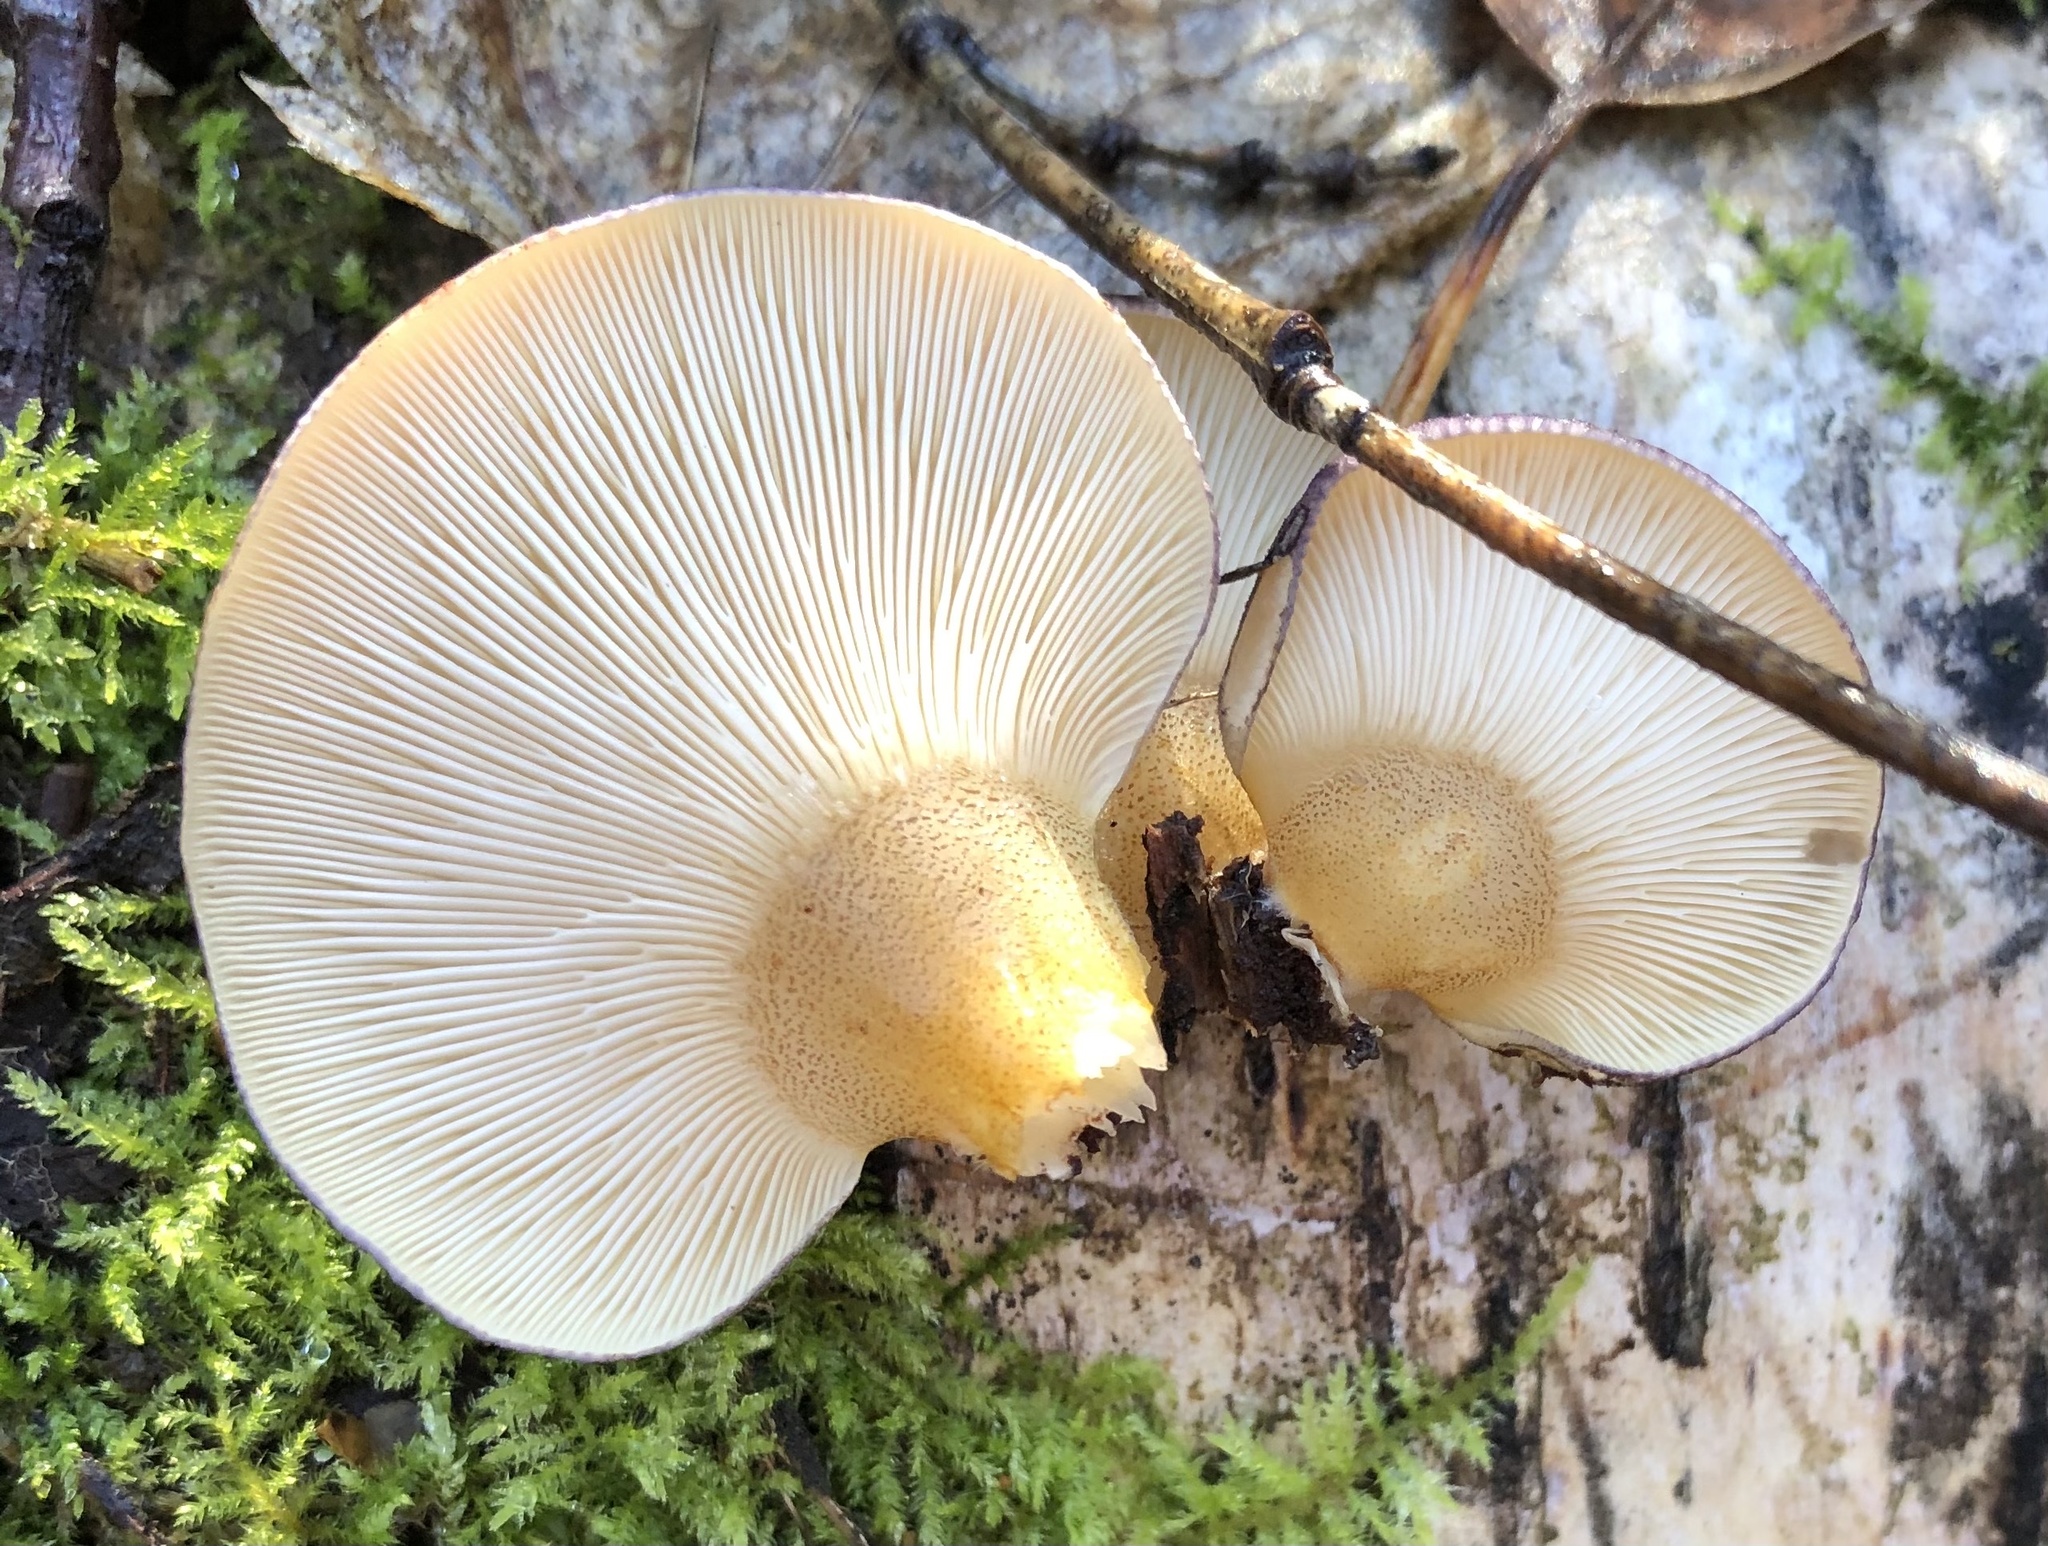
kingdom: Fungi
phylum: Basidiomycota
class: Agaricomycetes
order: Agaricales
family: Sarcomyxaceae
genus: Sarcomyxa
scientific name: Sarcomyxa serotina
